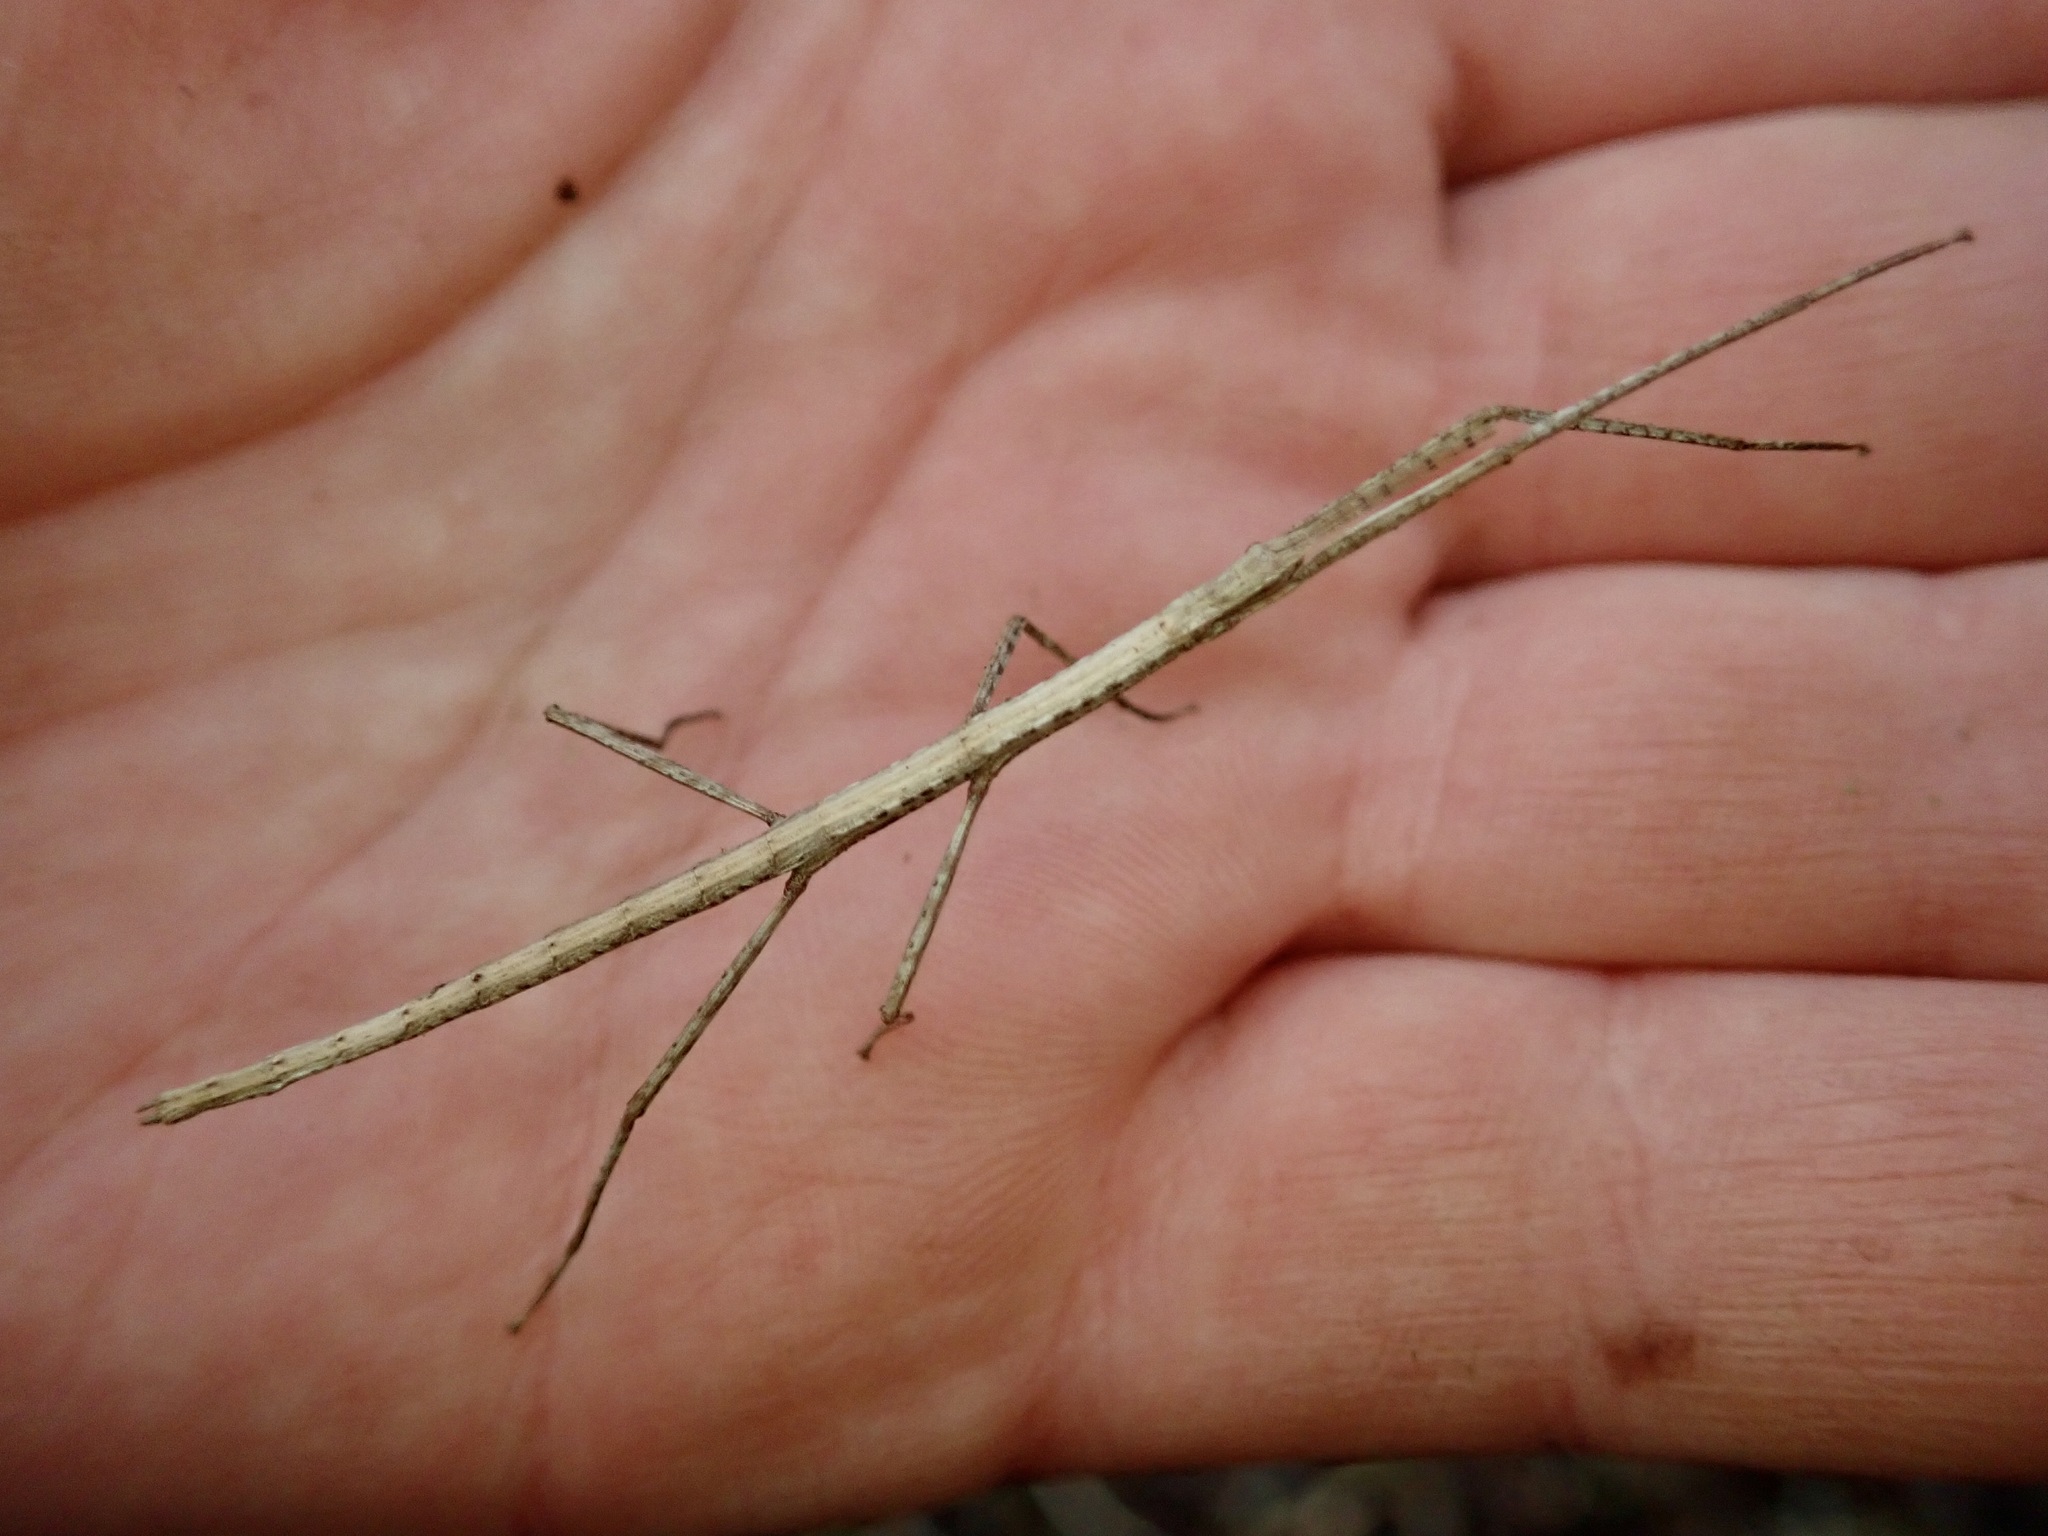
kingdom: Animalia
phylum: Arthropoda
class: Insecta
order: Phasmida
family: Phasmatidae
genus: Clitarchus
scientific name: Clitarchus hookeri
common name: Smooth stick insect
